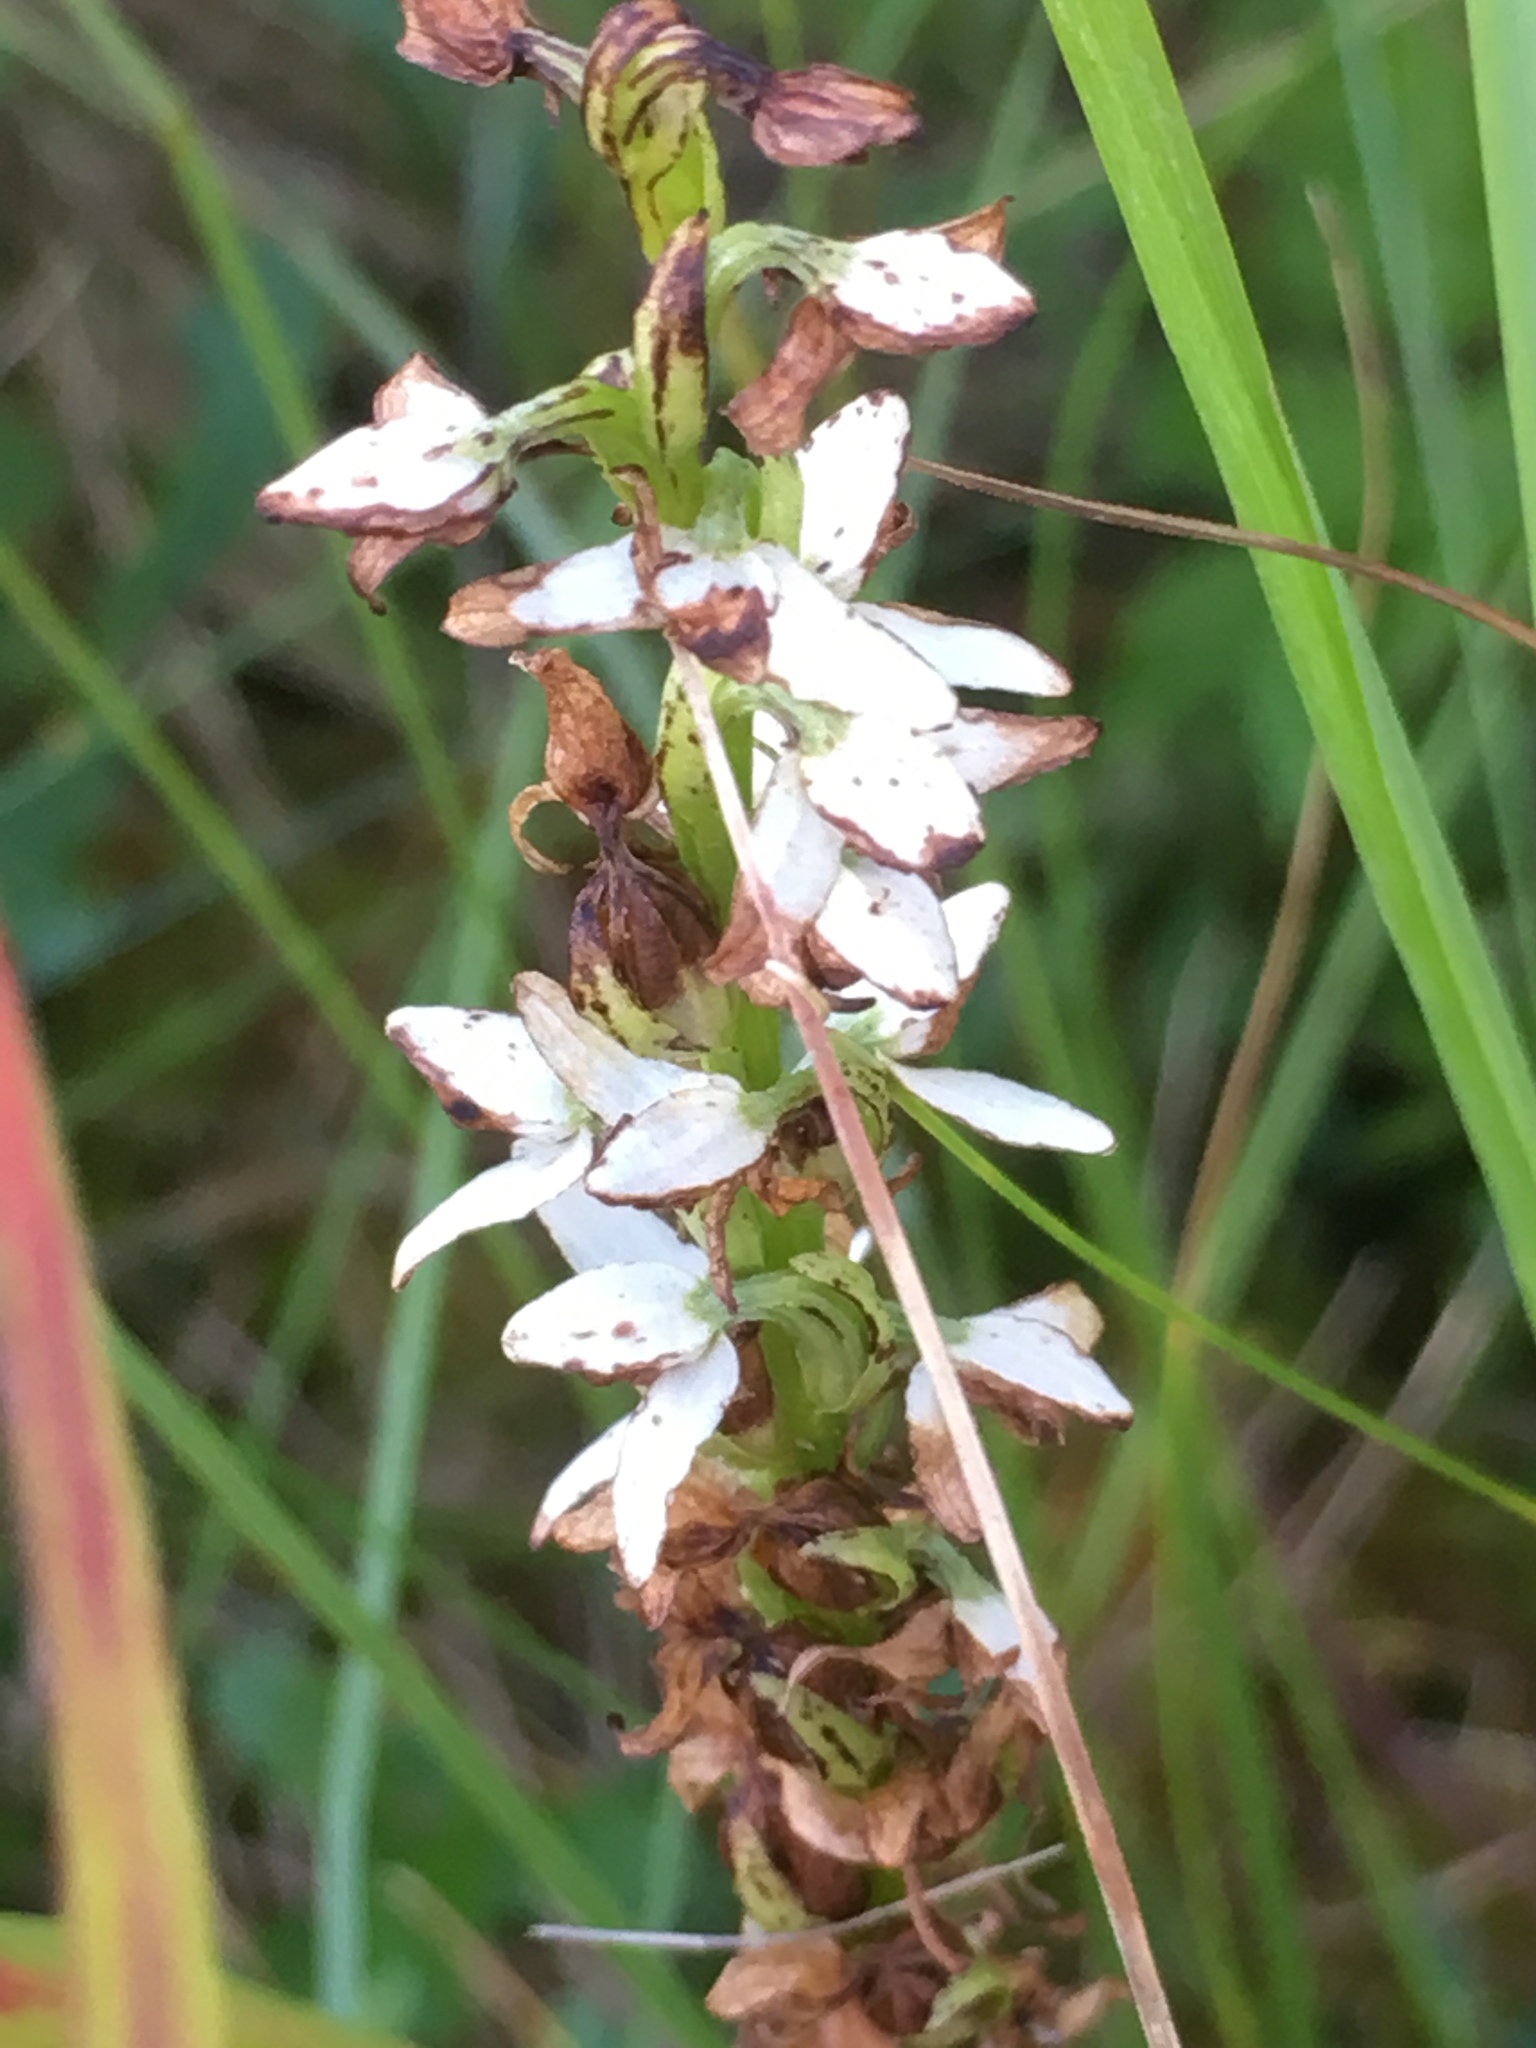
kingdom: Plantae
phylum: Tracheophyta
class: Liliopsida
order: Asparagales
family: Orchidaceae
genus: Platanthera
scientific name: Platanthera dilatata
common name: Bog candles
